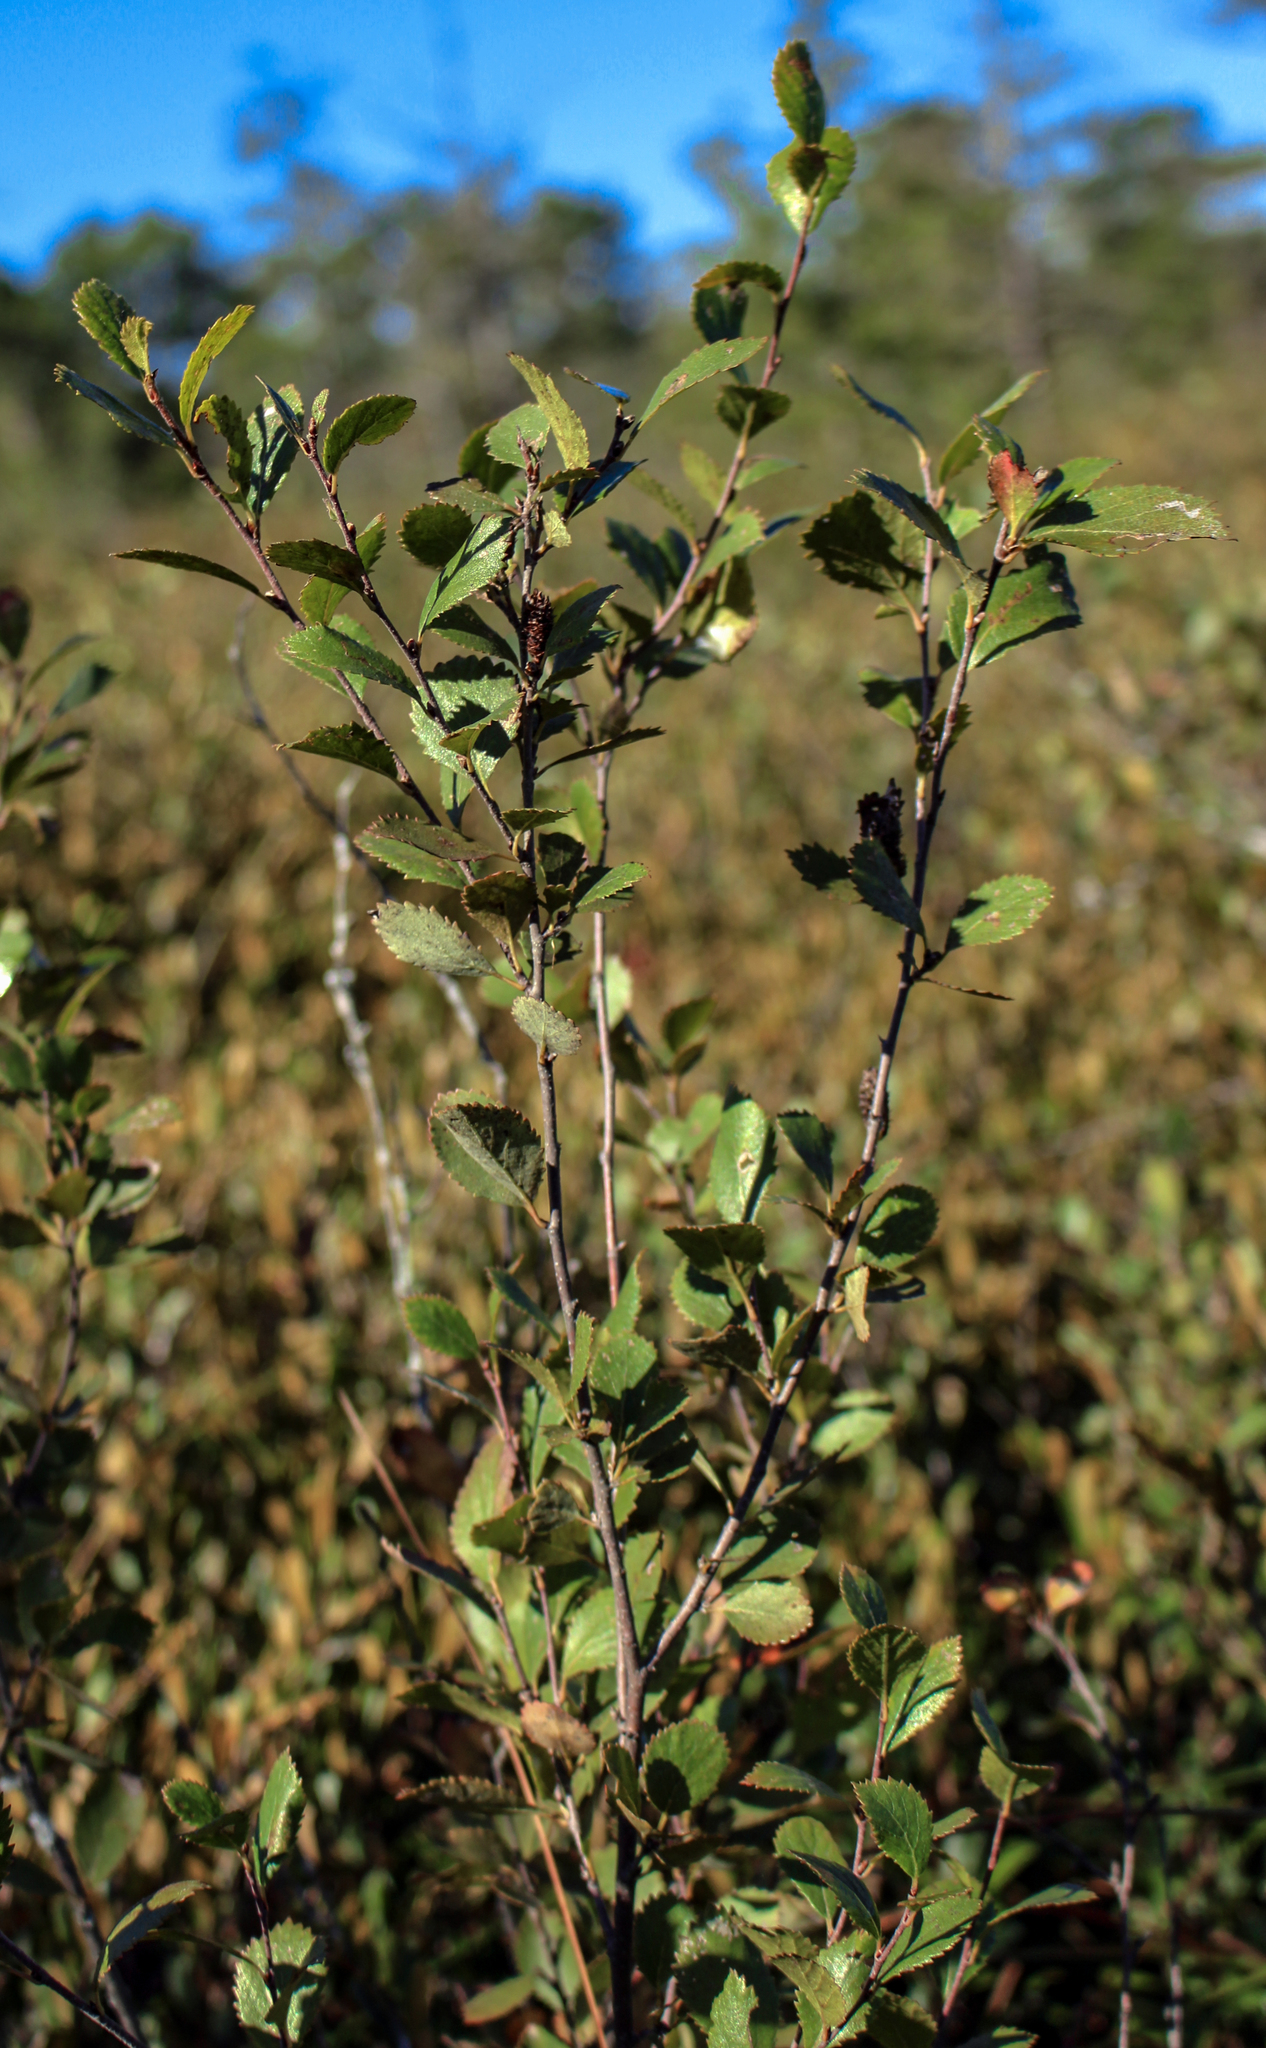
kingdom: Plantae
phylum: Tracheophyta
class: Magnoliopsida
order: Fagales
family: Betulaceae
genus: Betula
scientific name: Betula pumila
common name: Bog birch
